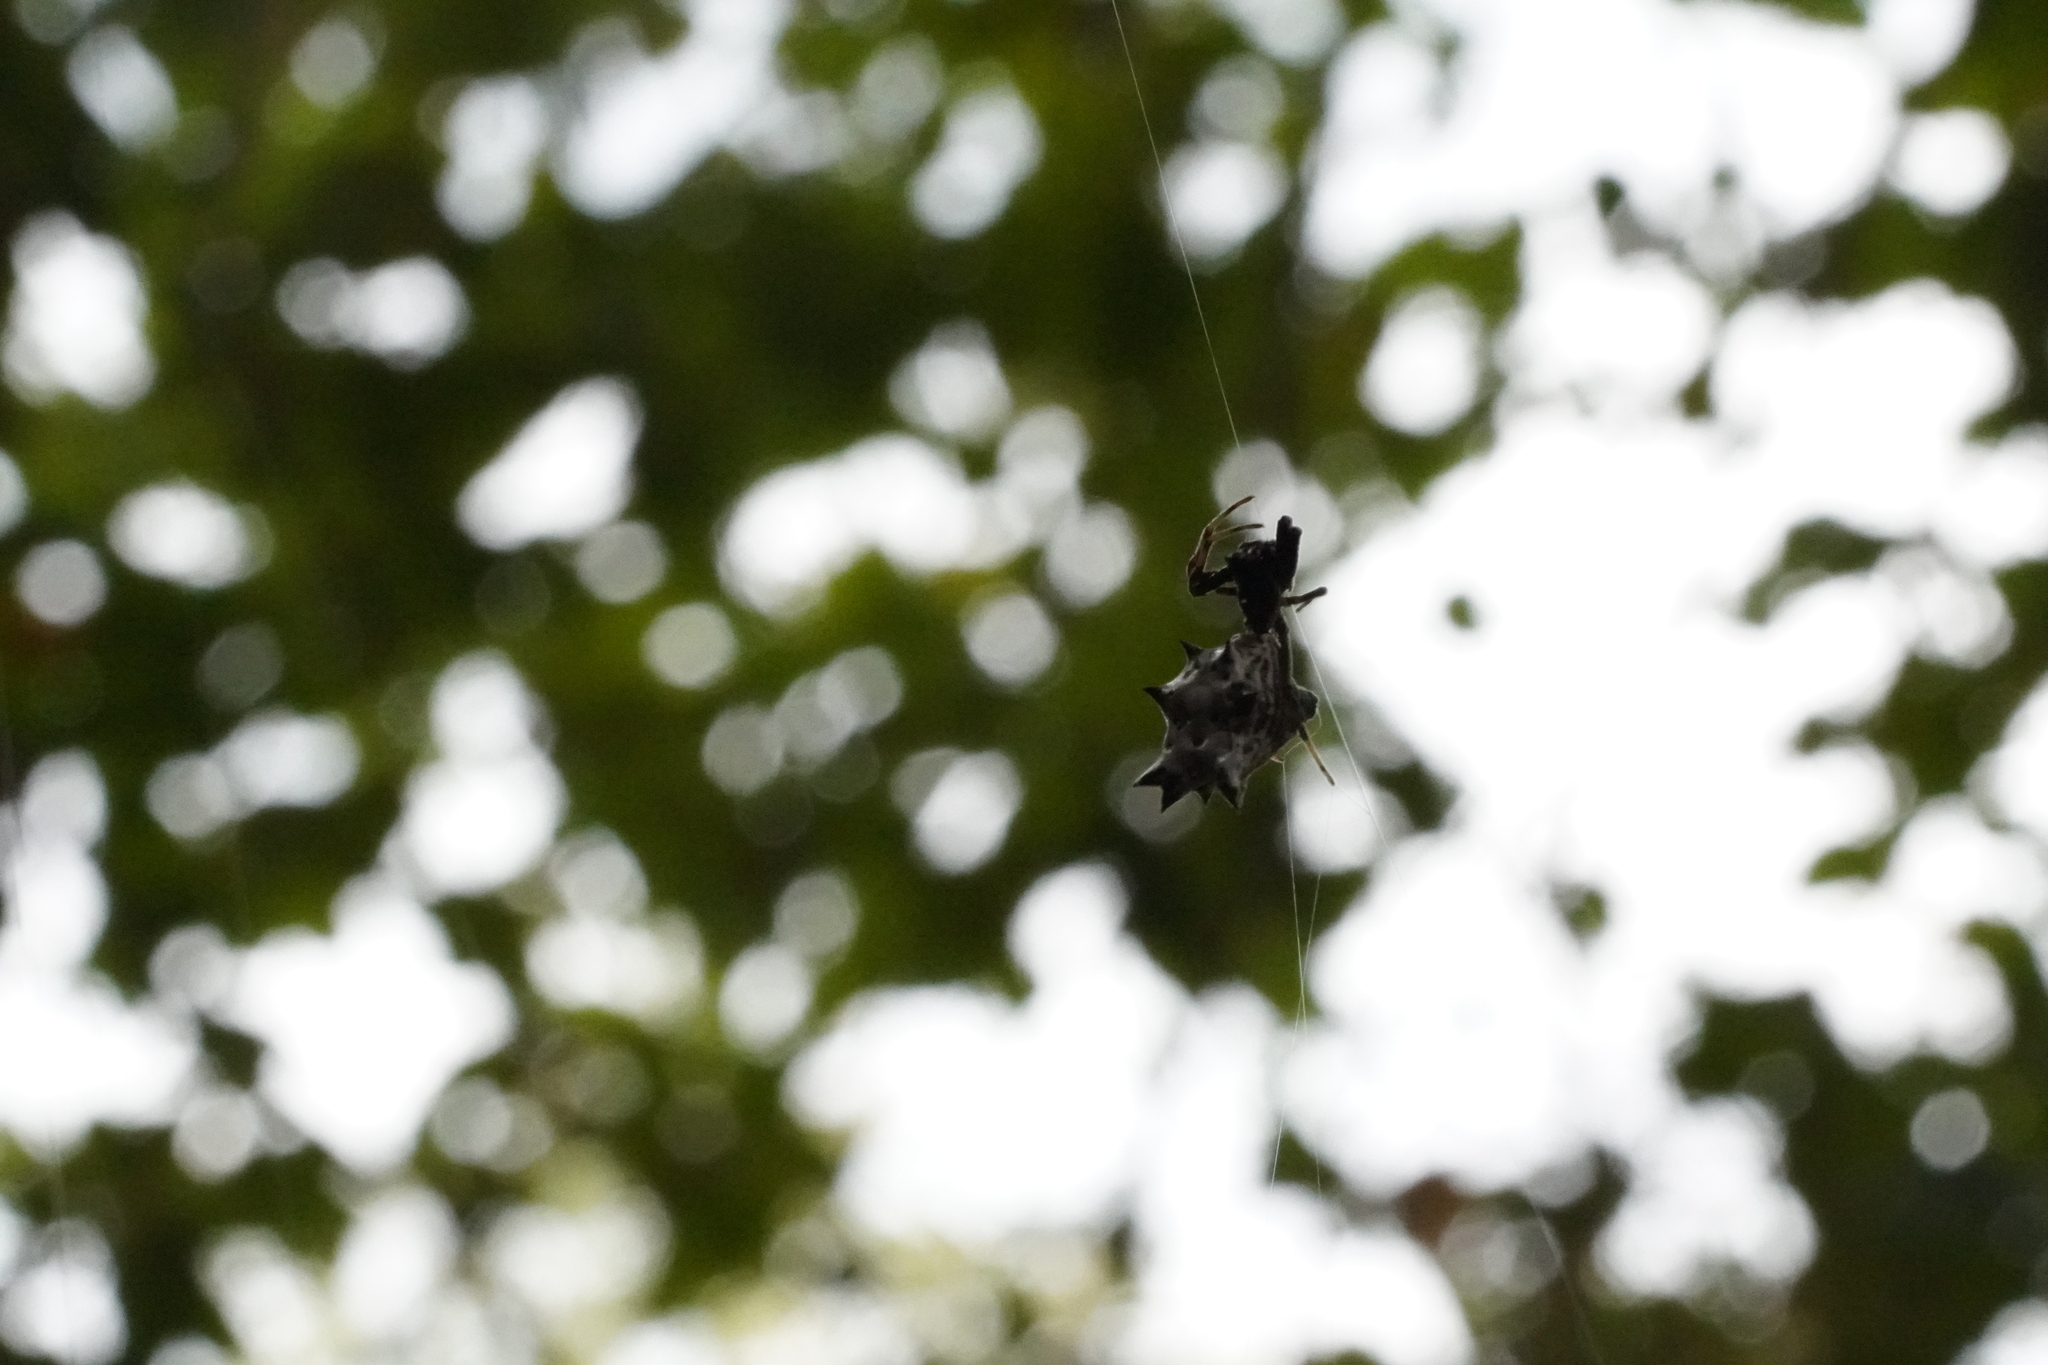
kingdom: Animalia
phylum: Arthropoda
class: Arachnida
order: Araneae
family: Araneidae
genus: Micrathena
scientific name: Micrathena gracilis
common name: Orb weavers
